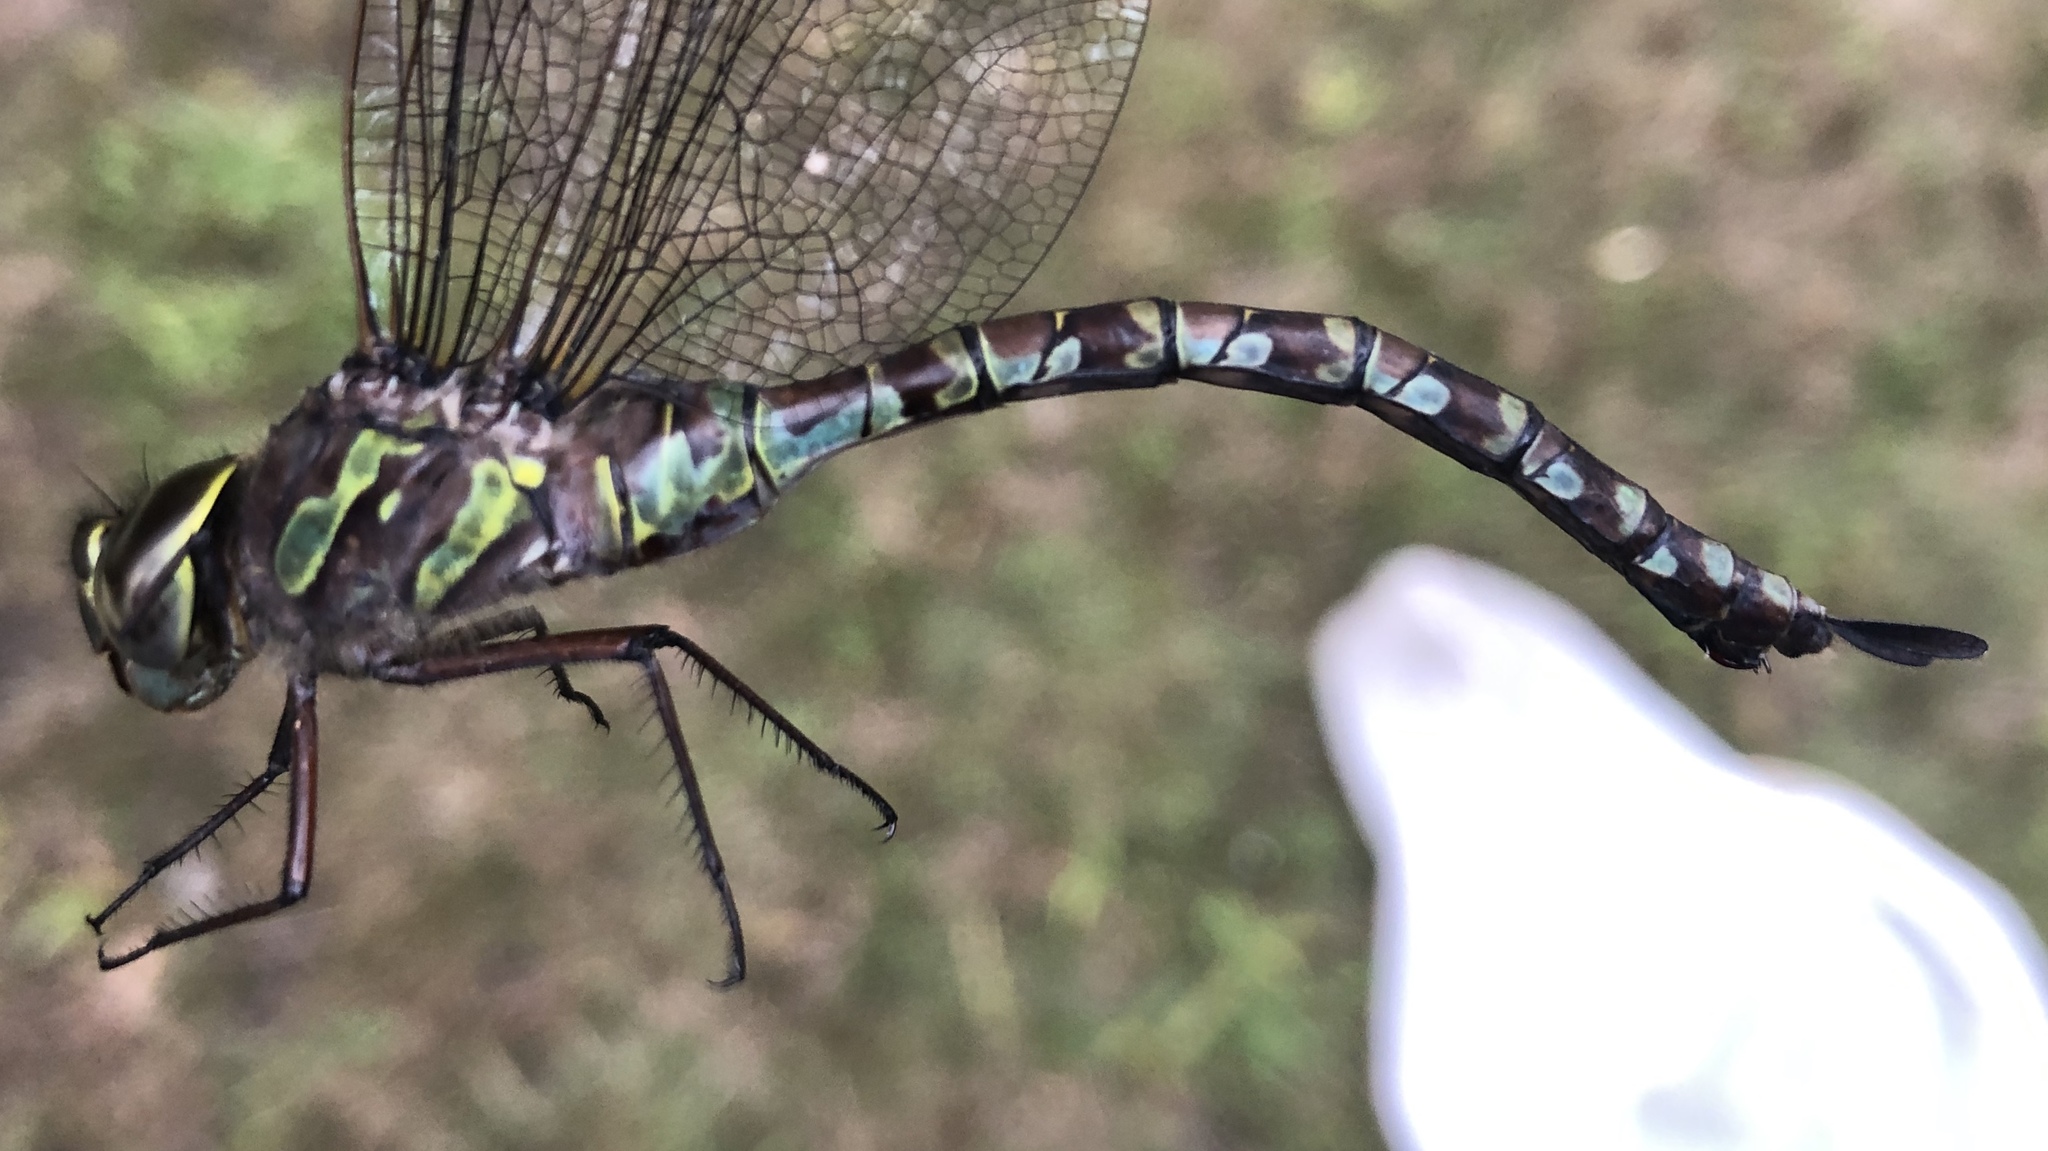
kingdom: Animalia
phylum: Arthropoda
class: Insecta
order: Odonata
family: Aeshnidae
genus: Aeshna
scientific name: Aeshna canadensis
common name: Canada darner
